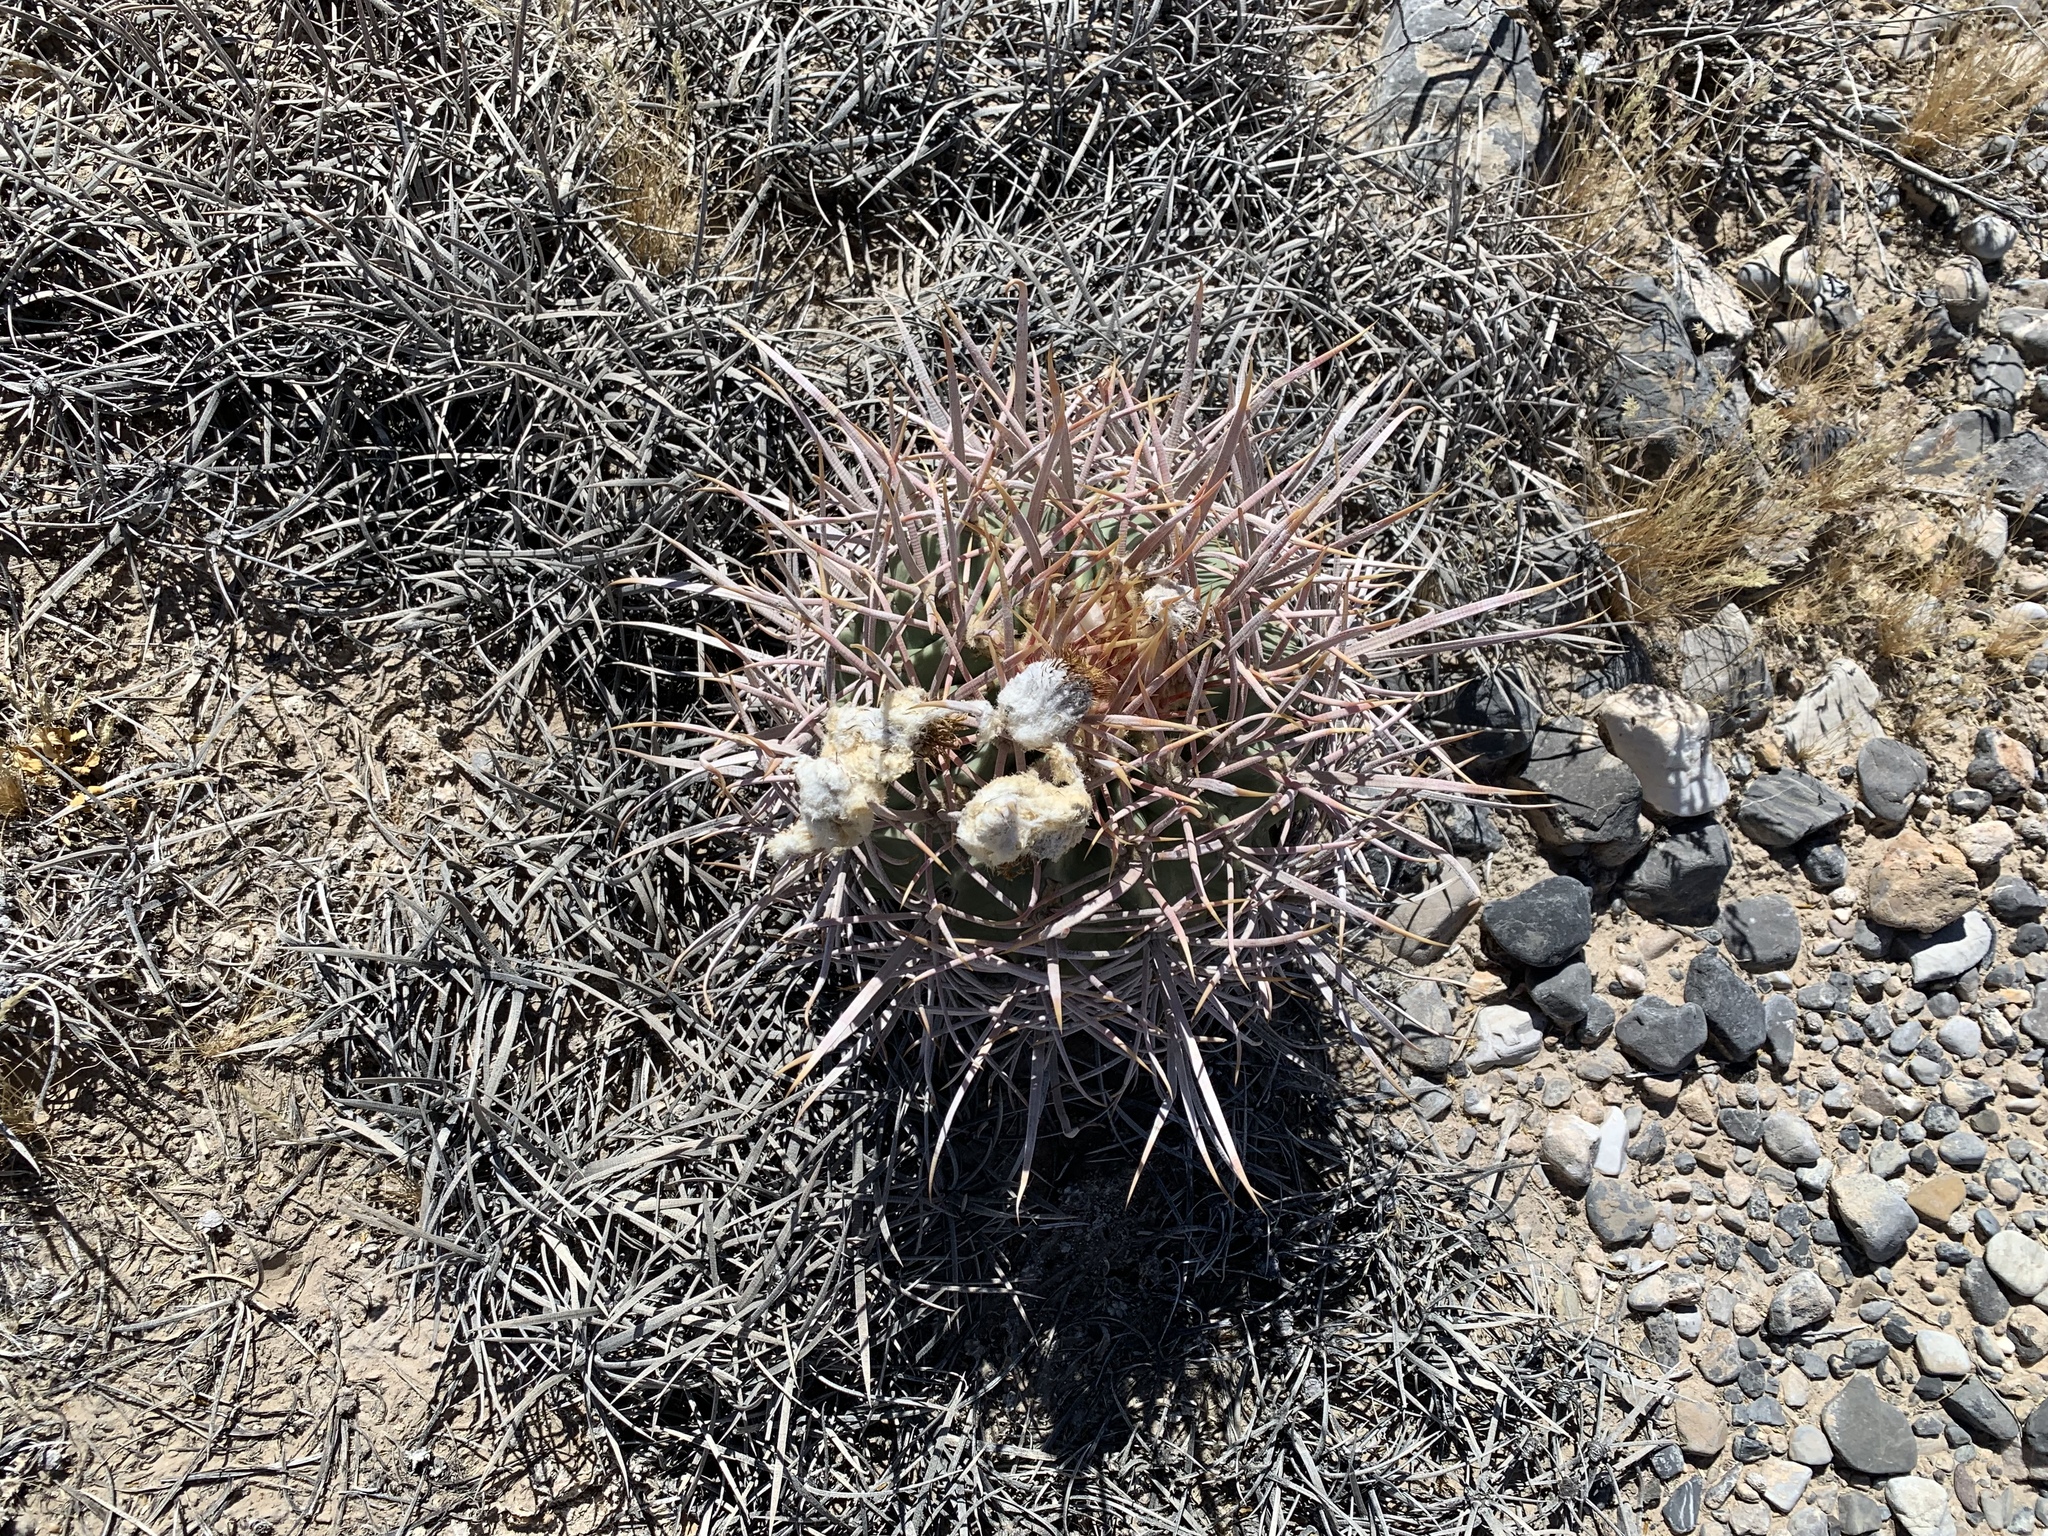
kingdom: Plantae
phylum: Tracheophyta
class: Magnoliopsida
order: Caryophyllales
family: Cactaceae
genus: Echinocactus
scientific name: Echinocactus polycephalus
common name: Cottontop cactus
